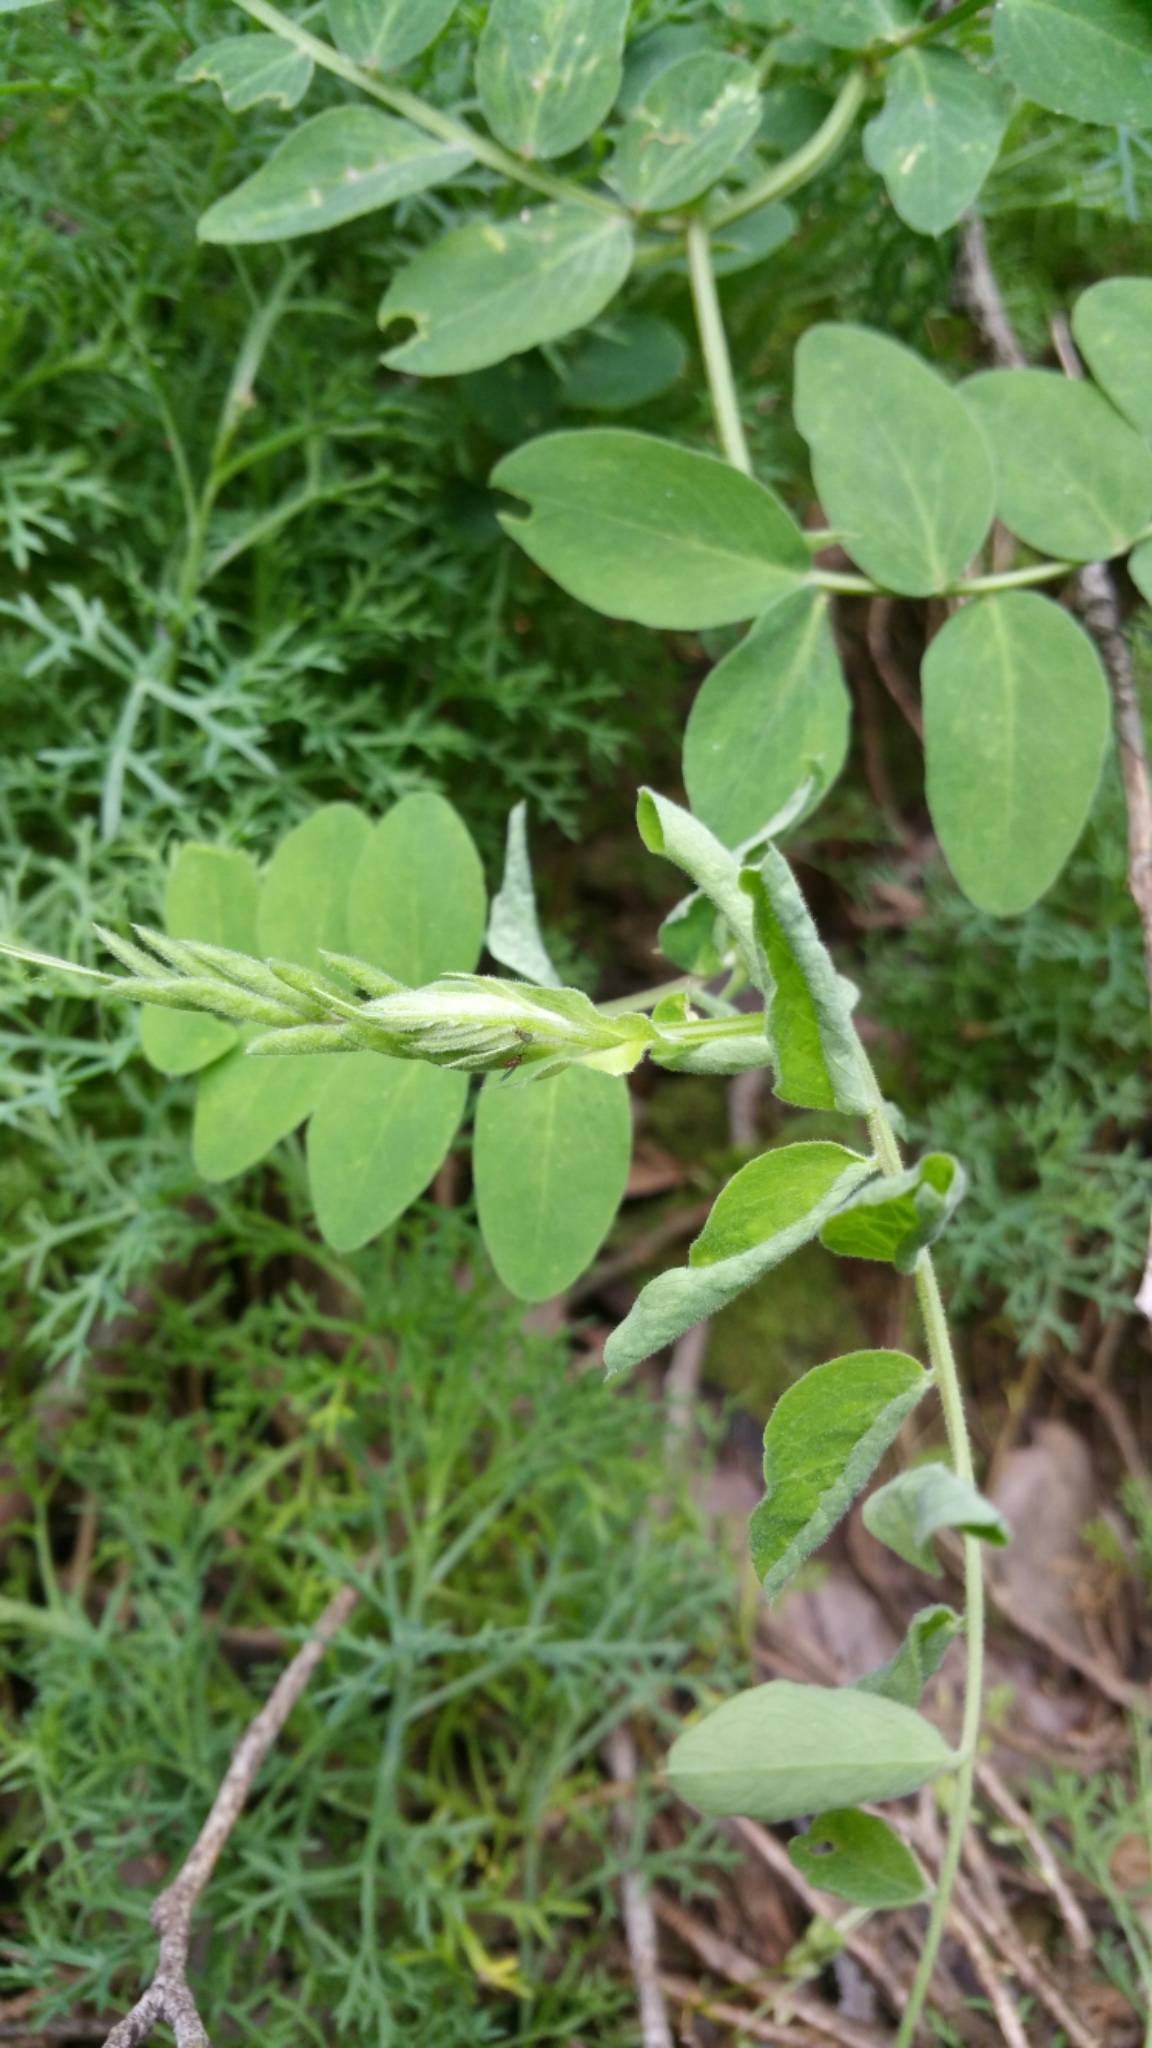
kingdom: Plantae
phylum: Tracheophyta
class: Magnoliopsida
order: Fabales
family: Fabaceae
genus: Lathyrus
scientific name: Lathyrus vestitus
